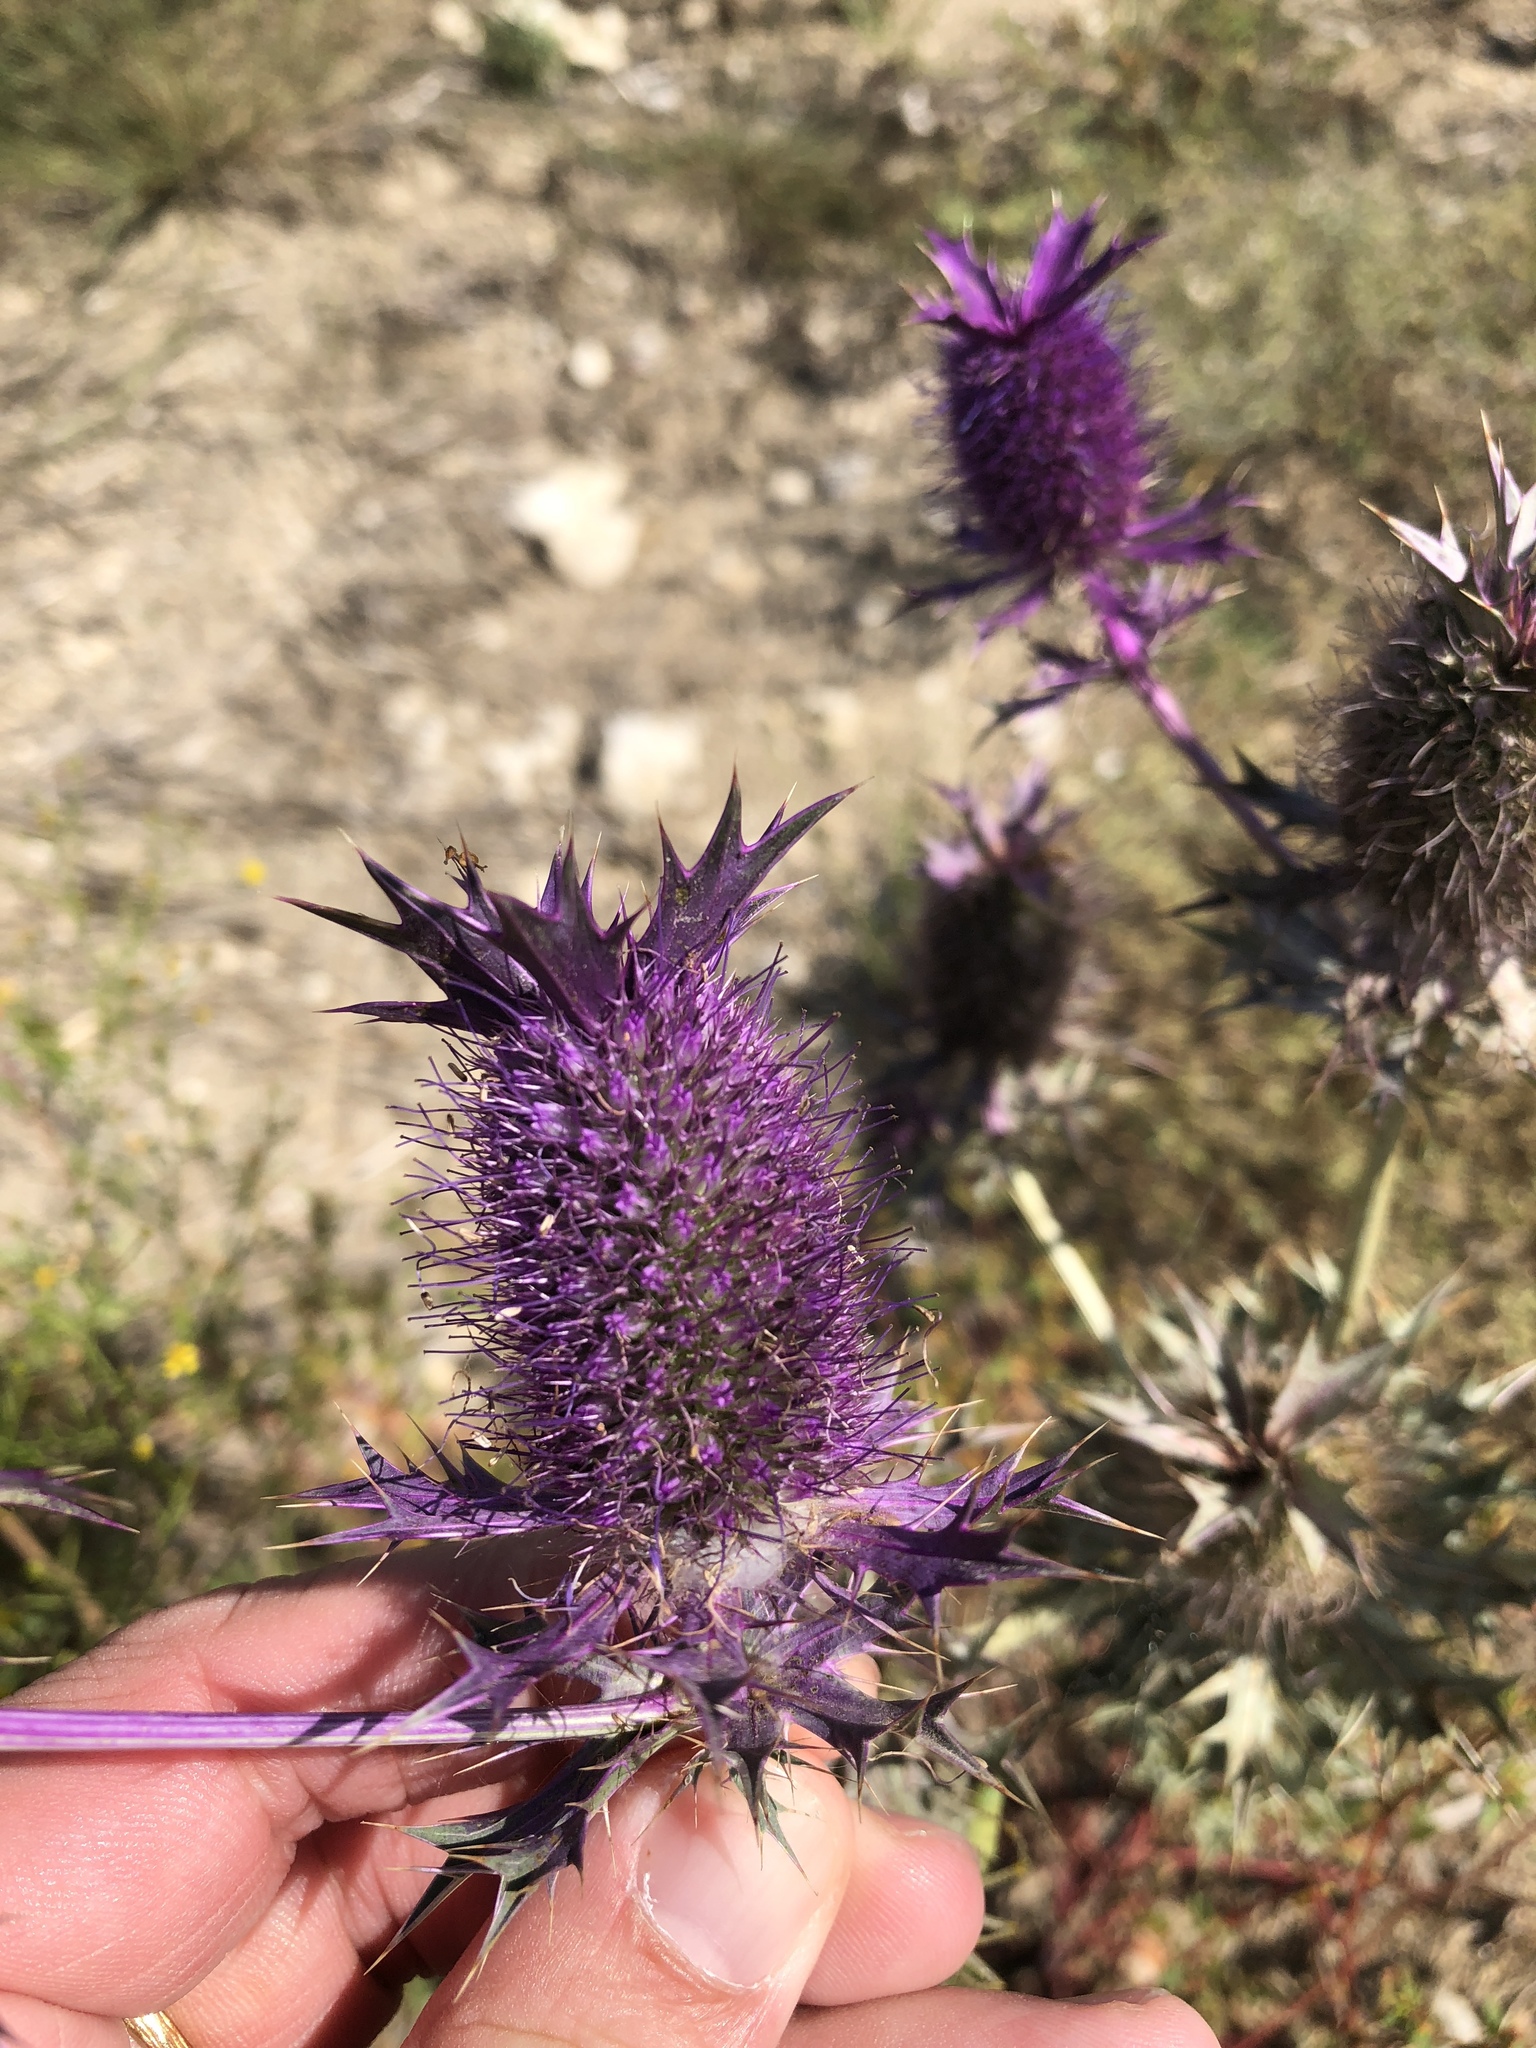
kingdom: Plantae
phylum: Tracheophyta
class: Magnoliopsida
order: Apiales
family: Apiaceae
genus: Eryngium
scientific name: Eryngium leavenworthii
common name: Leavenworth's eryngo
